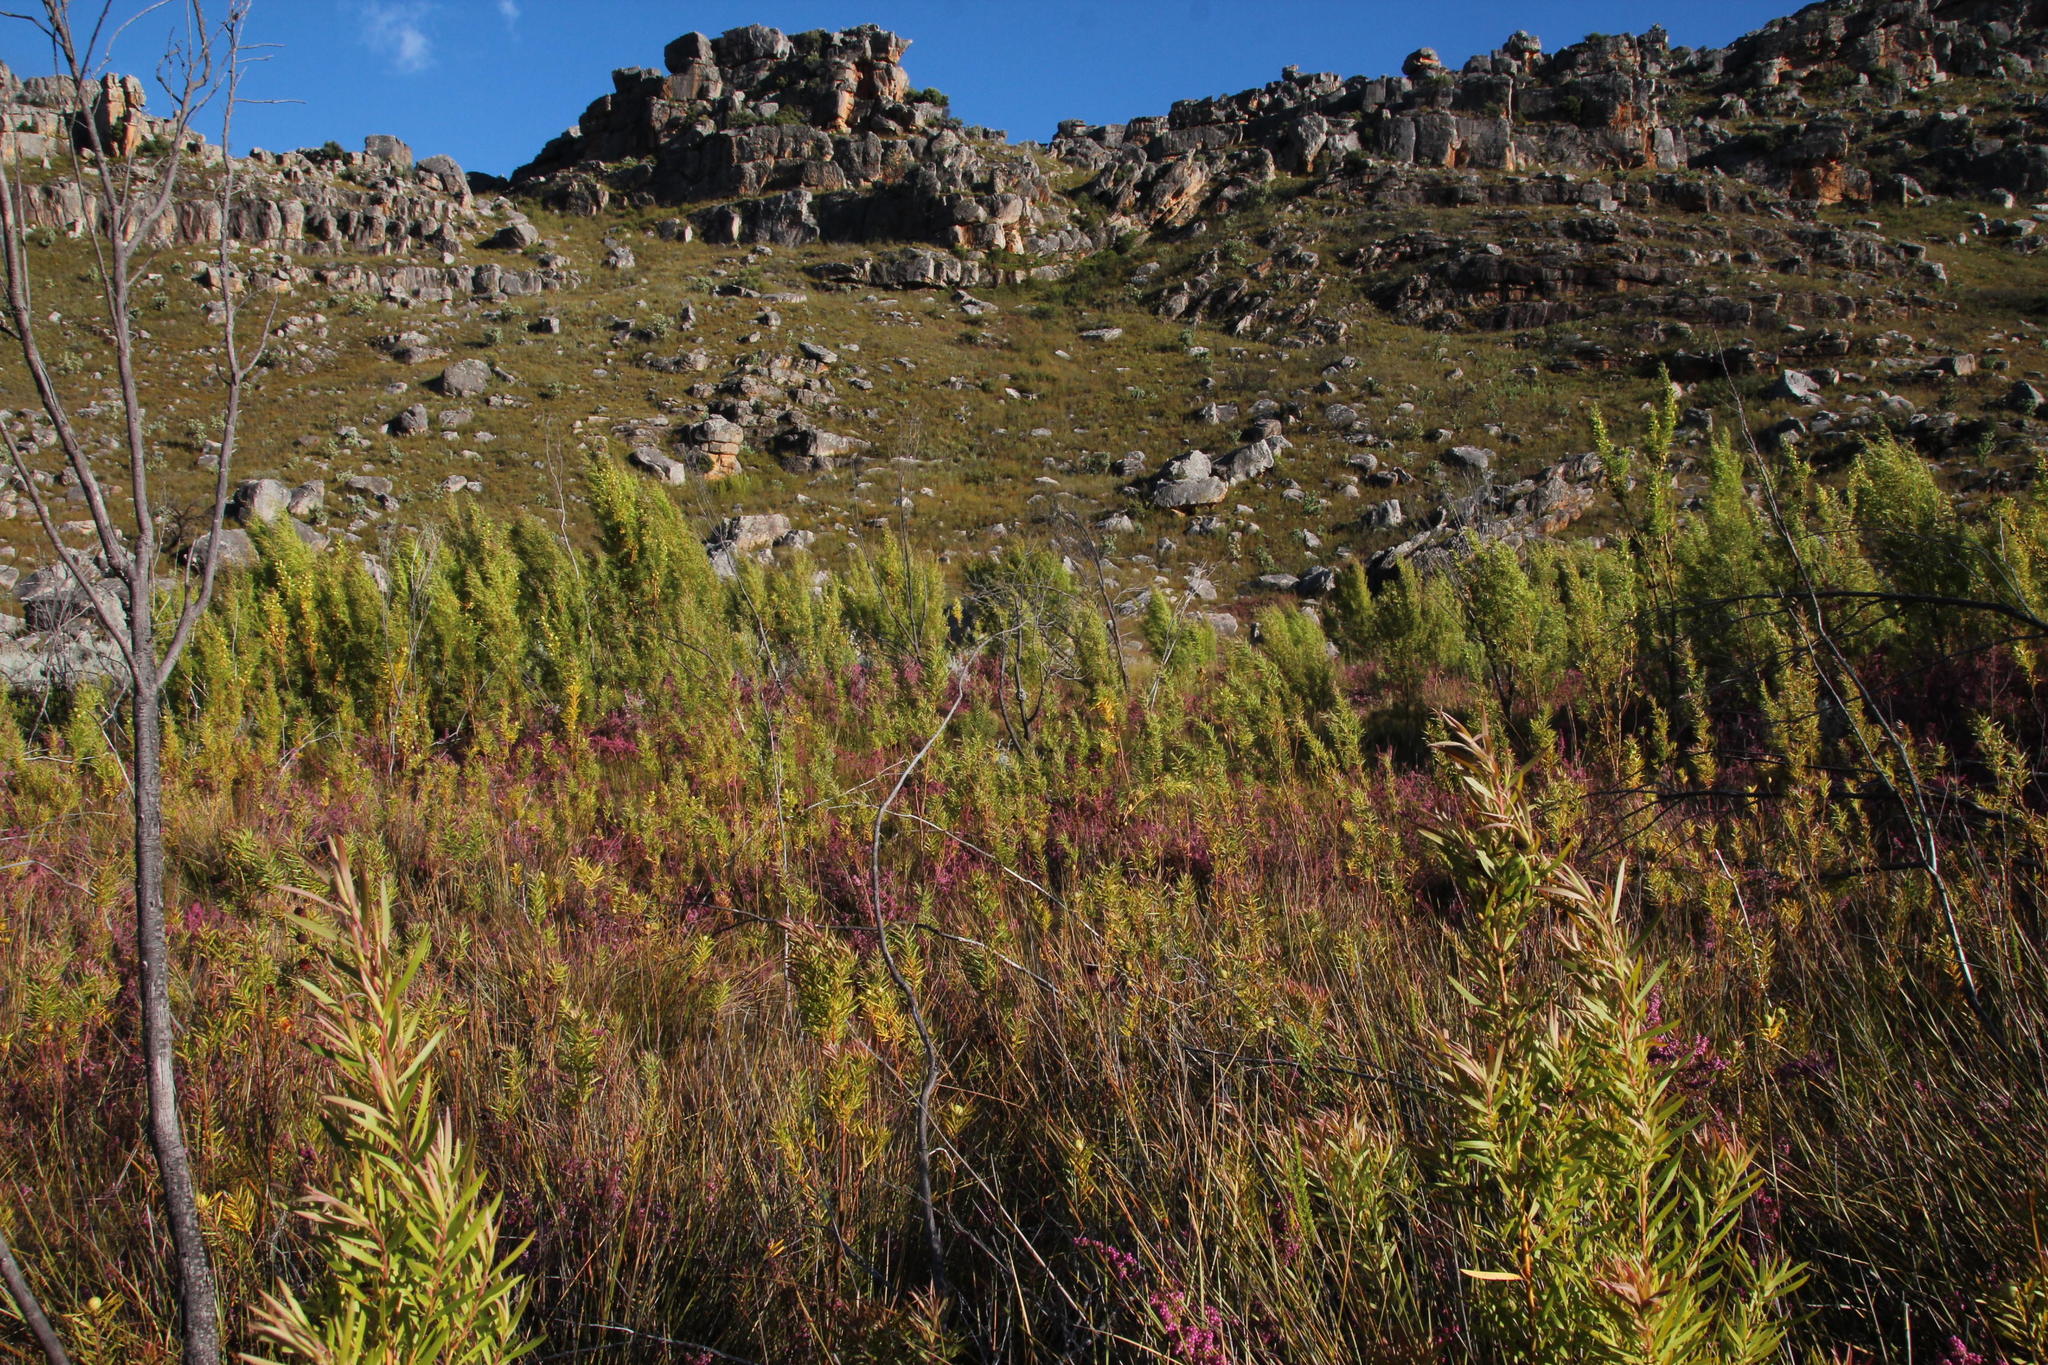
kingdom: Plantae
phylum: Tracheophyta
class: Magnoliopsida
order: Ericales
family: Ericaceae
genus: Erica
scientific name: Erica bergiana
